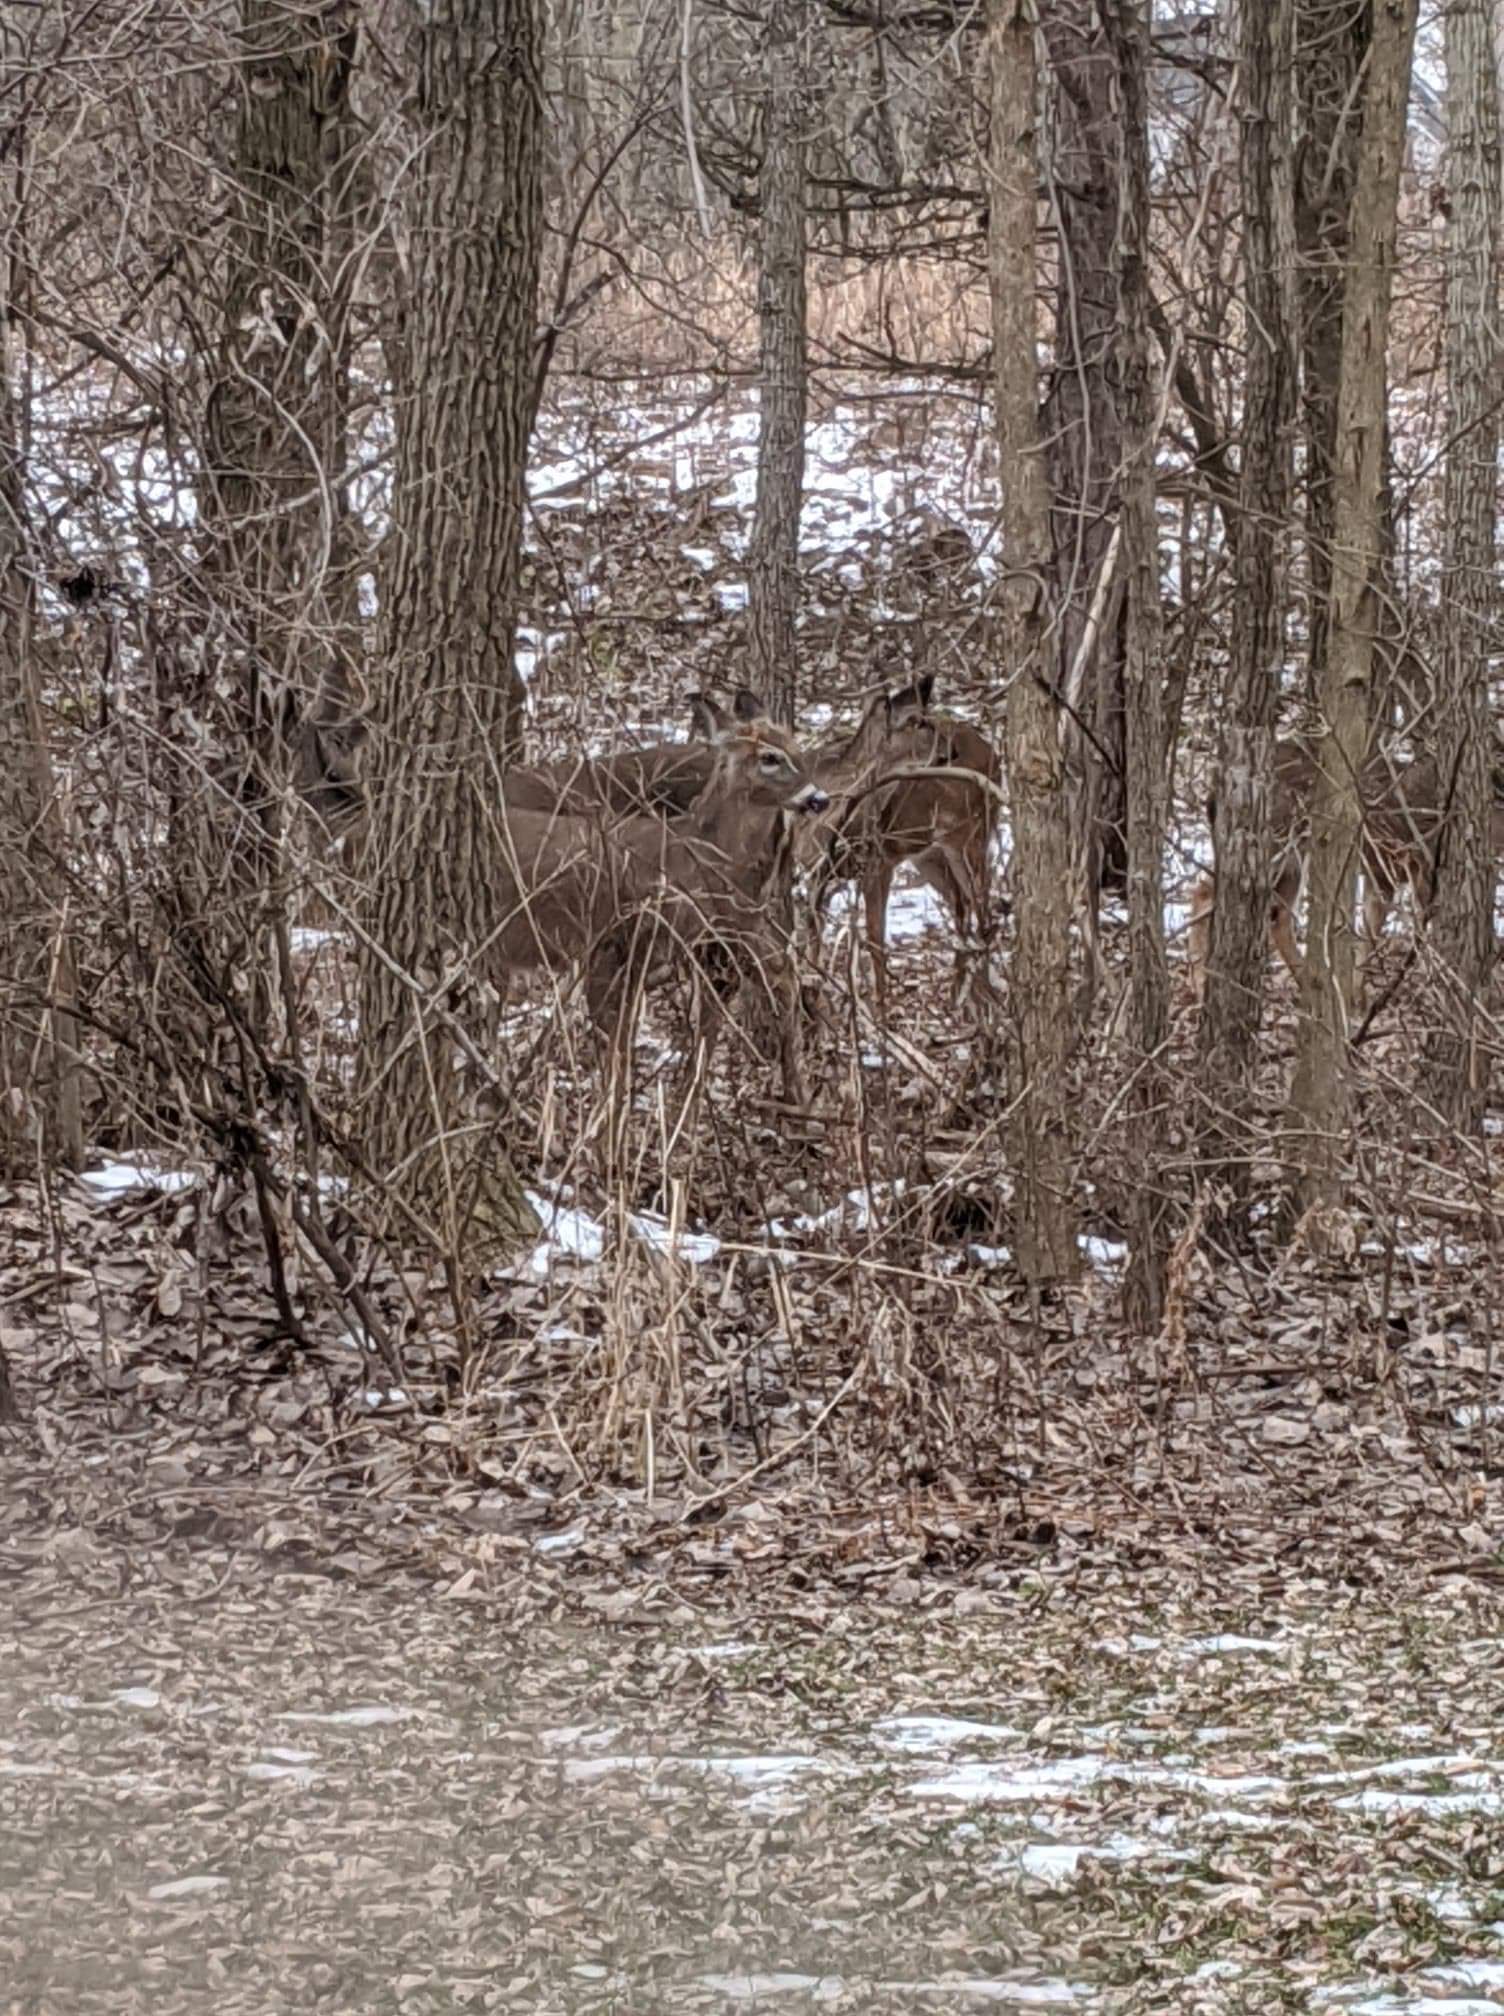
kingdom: Animalia
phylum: Chordata
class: Mammalia
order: Artiodactyla
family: Cervidae
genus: Odocoileus
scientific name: Odocoileus virginianus
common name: White-tailed deer
